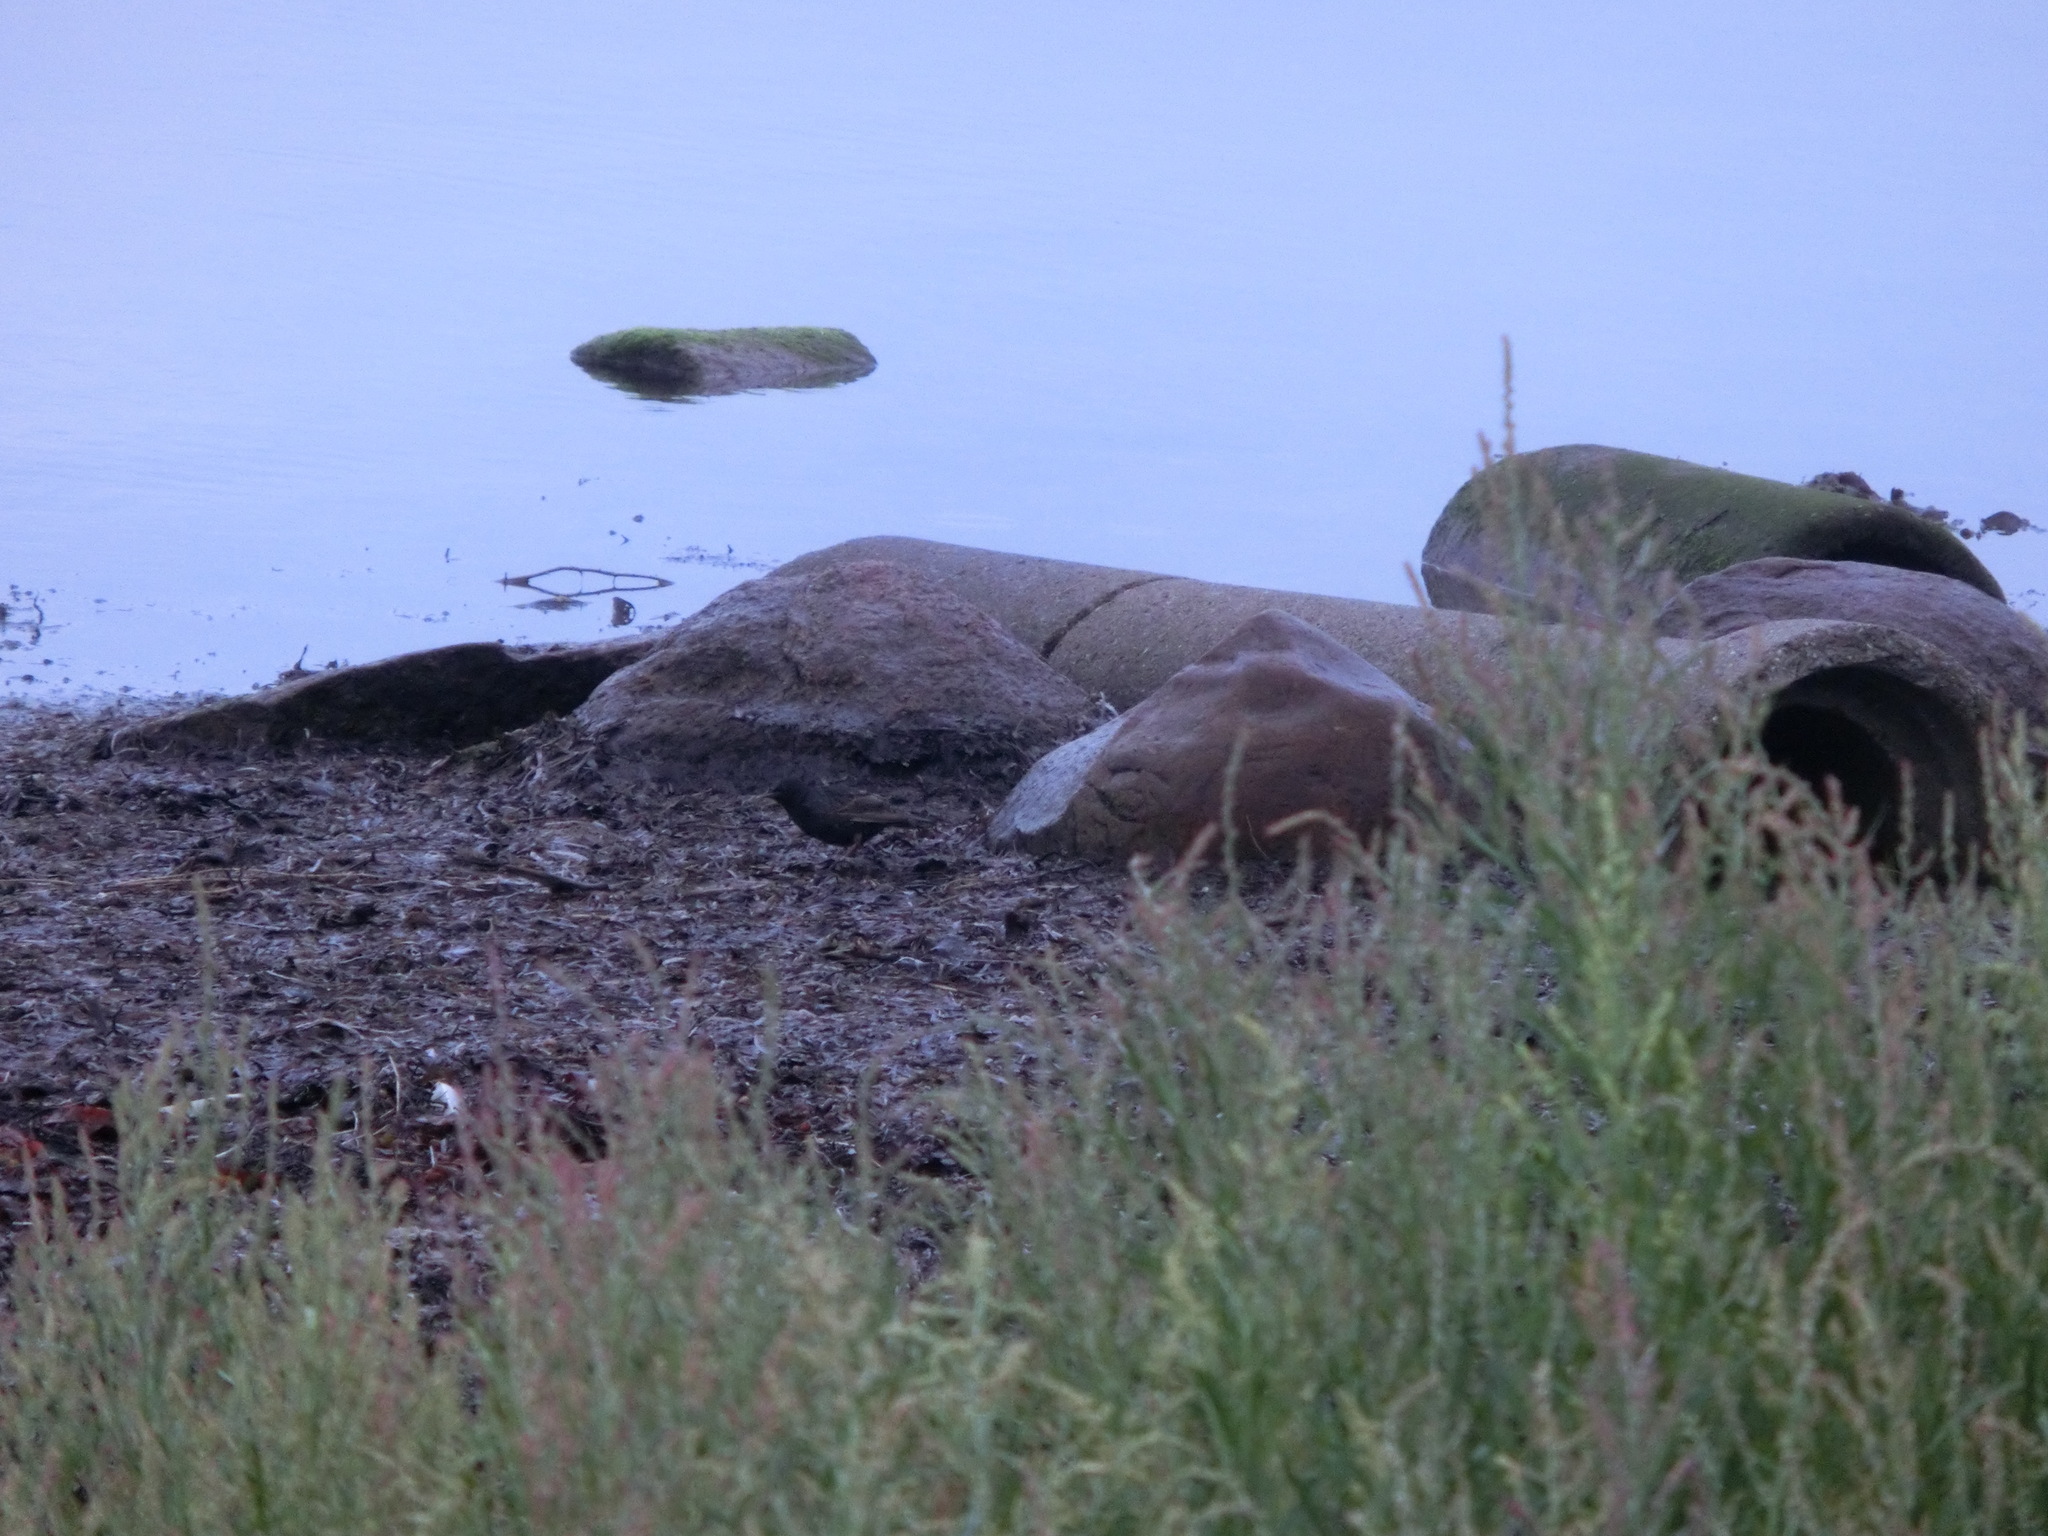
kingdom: Animalia
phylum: Chordata
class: Aves
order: Passeriformes
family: Sturnidae
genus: Sturnus
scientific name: Sturnus vulgaris
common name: Common starling
